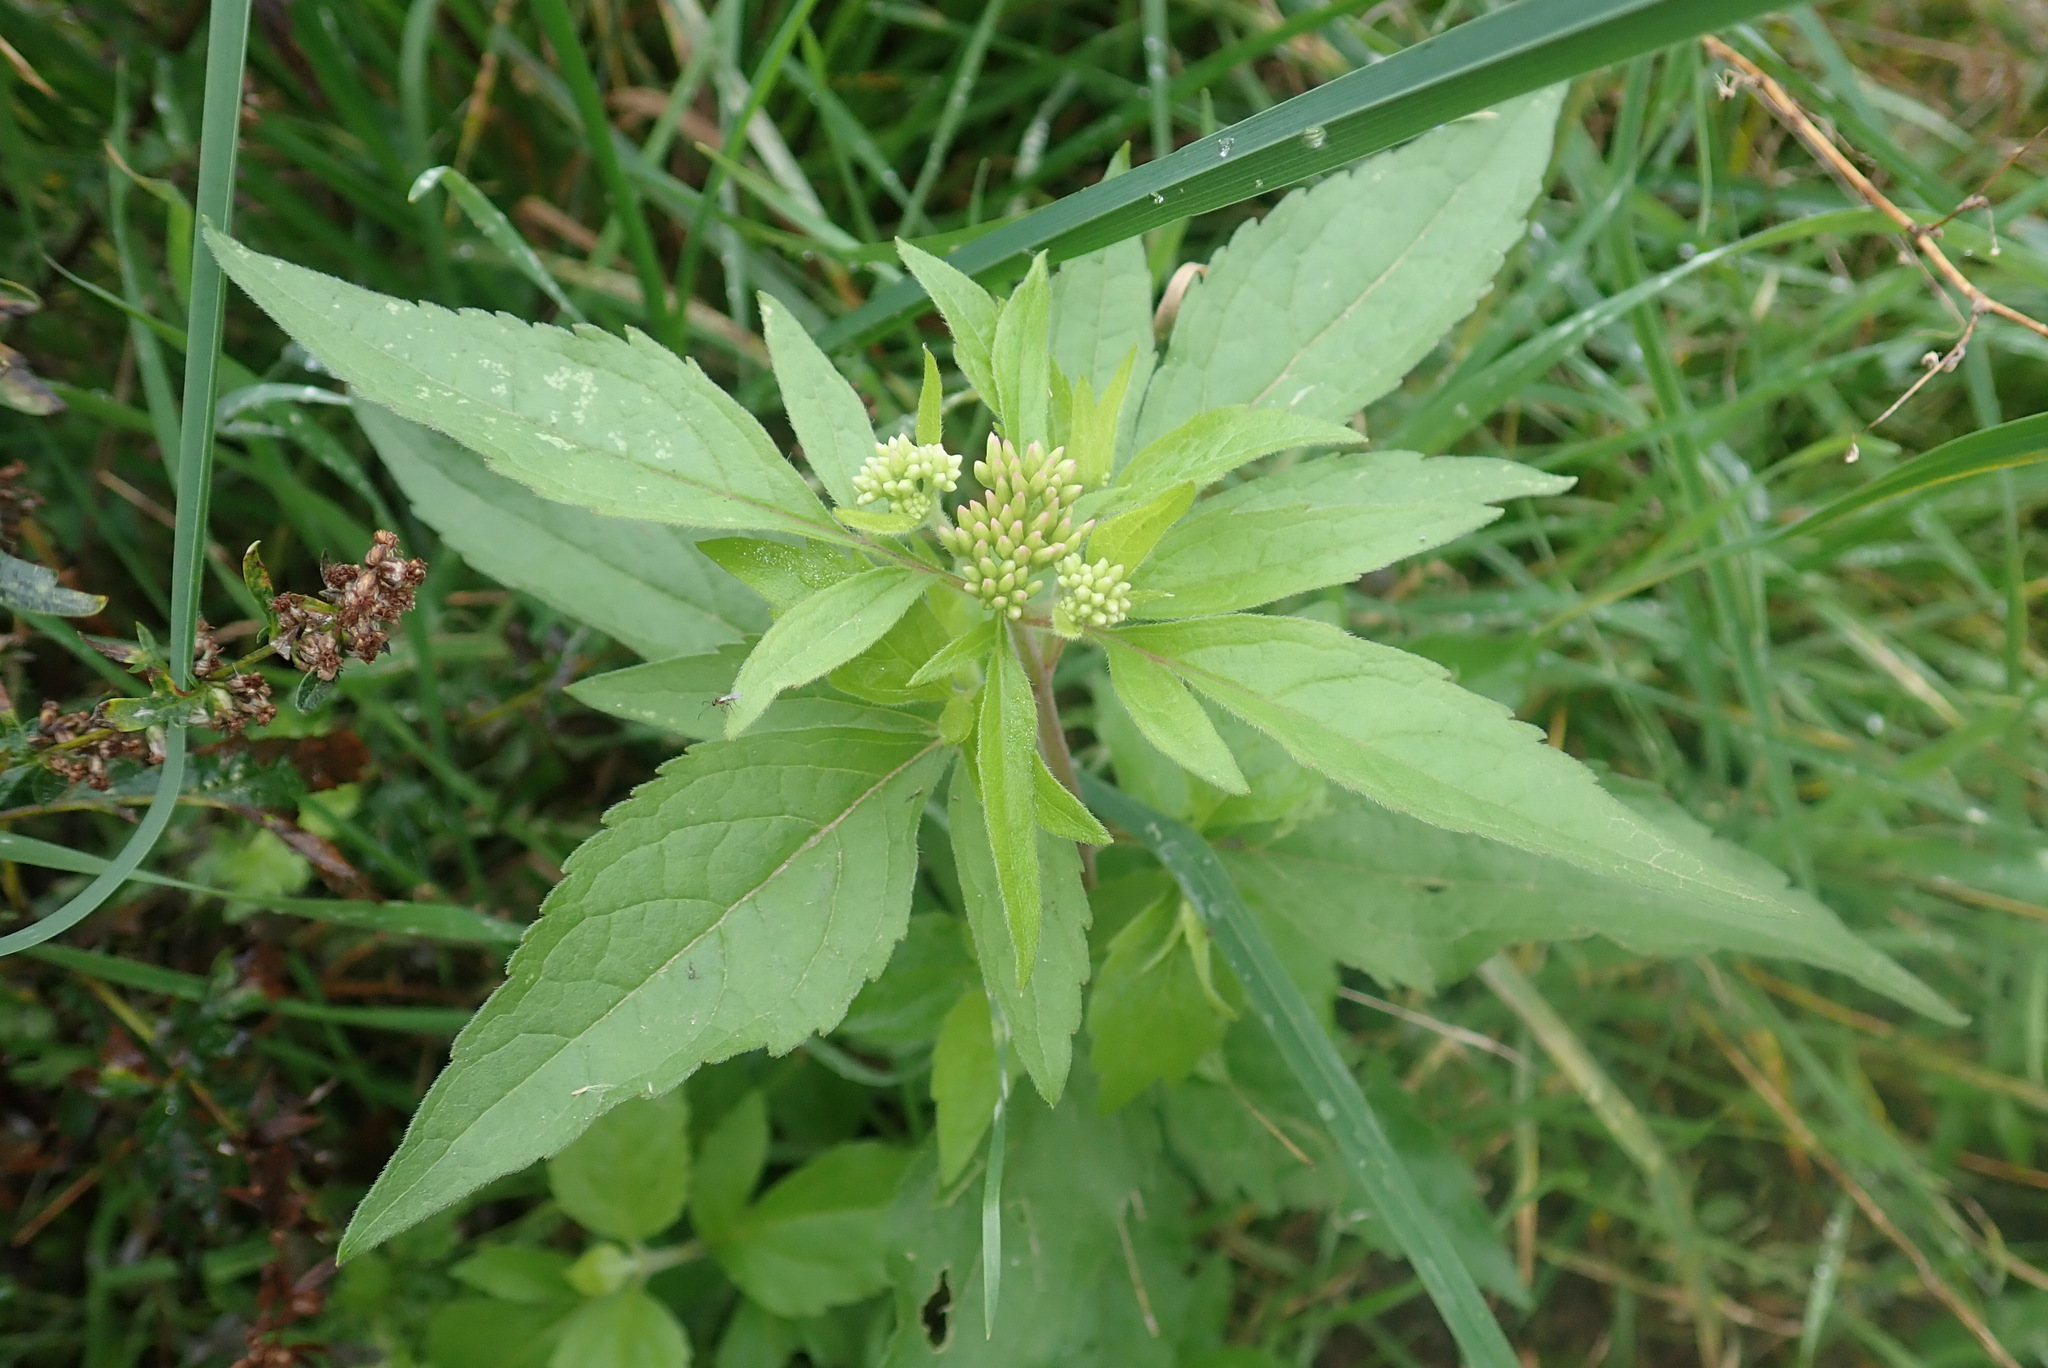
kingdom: Plantae
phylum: Tracheophyta
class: Magnoliopsida
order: Asterales
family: Asteraceae
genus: Eupatorium
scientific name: Eupatorium cannabinum
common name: Hemp-agrimony
